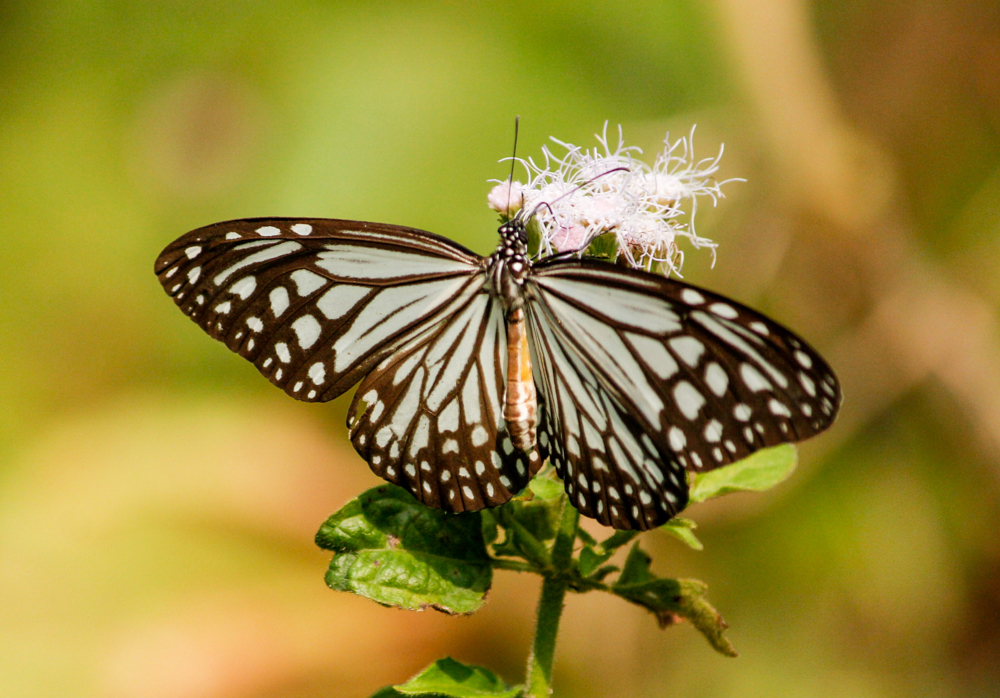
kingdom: Animalia
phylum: Arthropoda
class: Insecta
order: Lepidoptera
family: Nymphalidae
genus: Parantica
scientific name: Parantica aglea
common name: Glassy tiger
